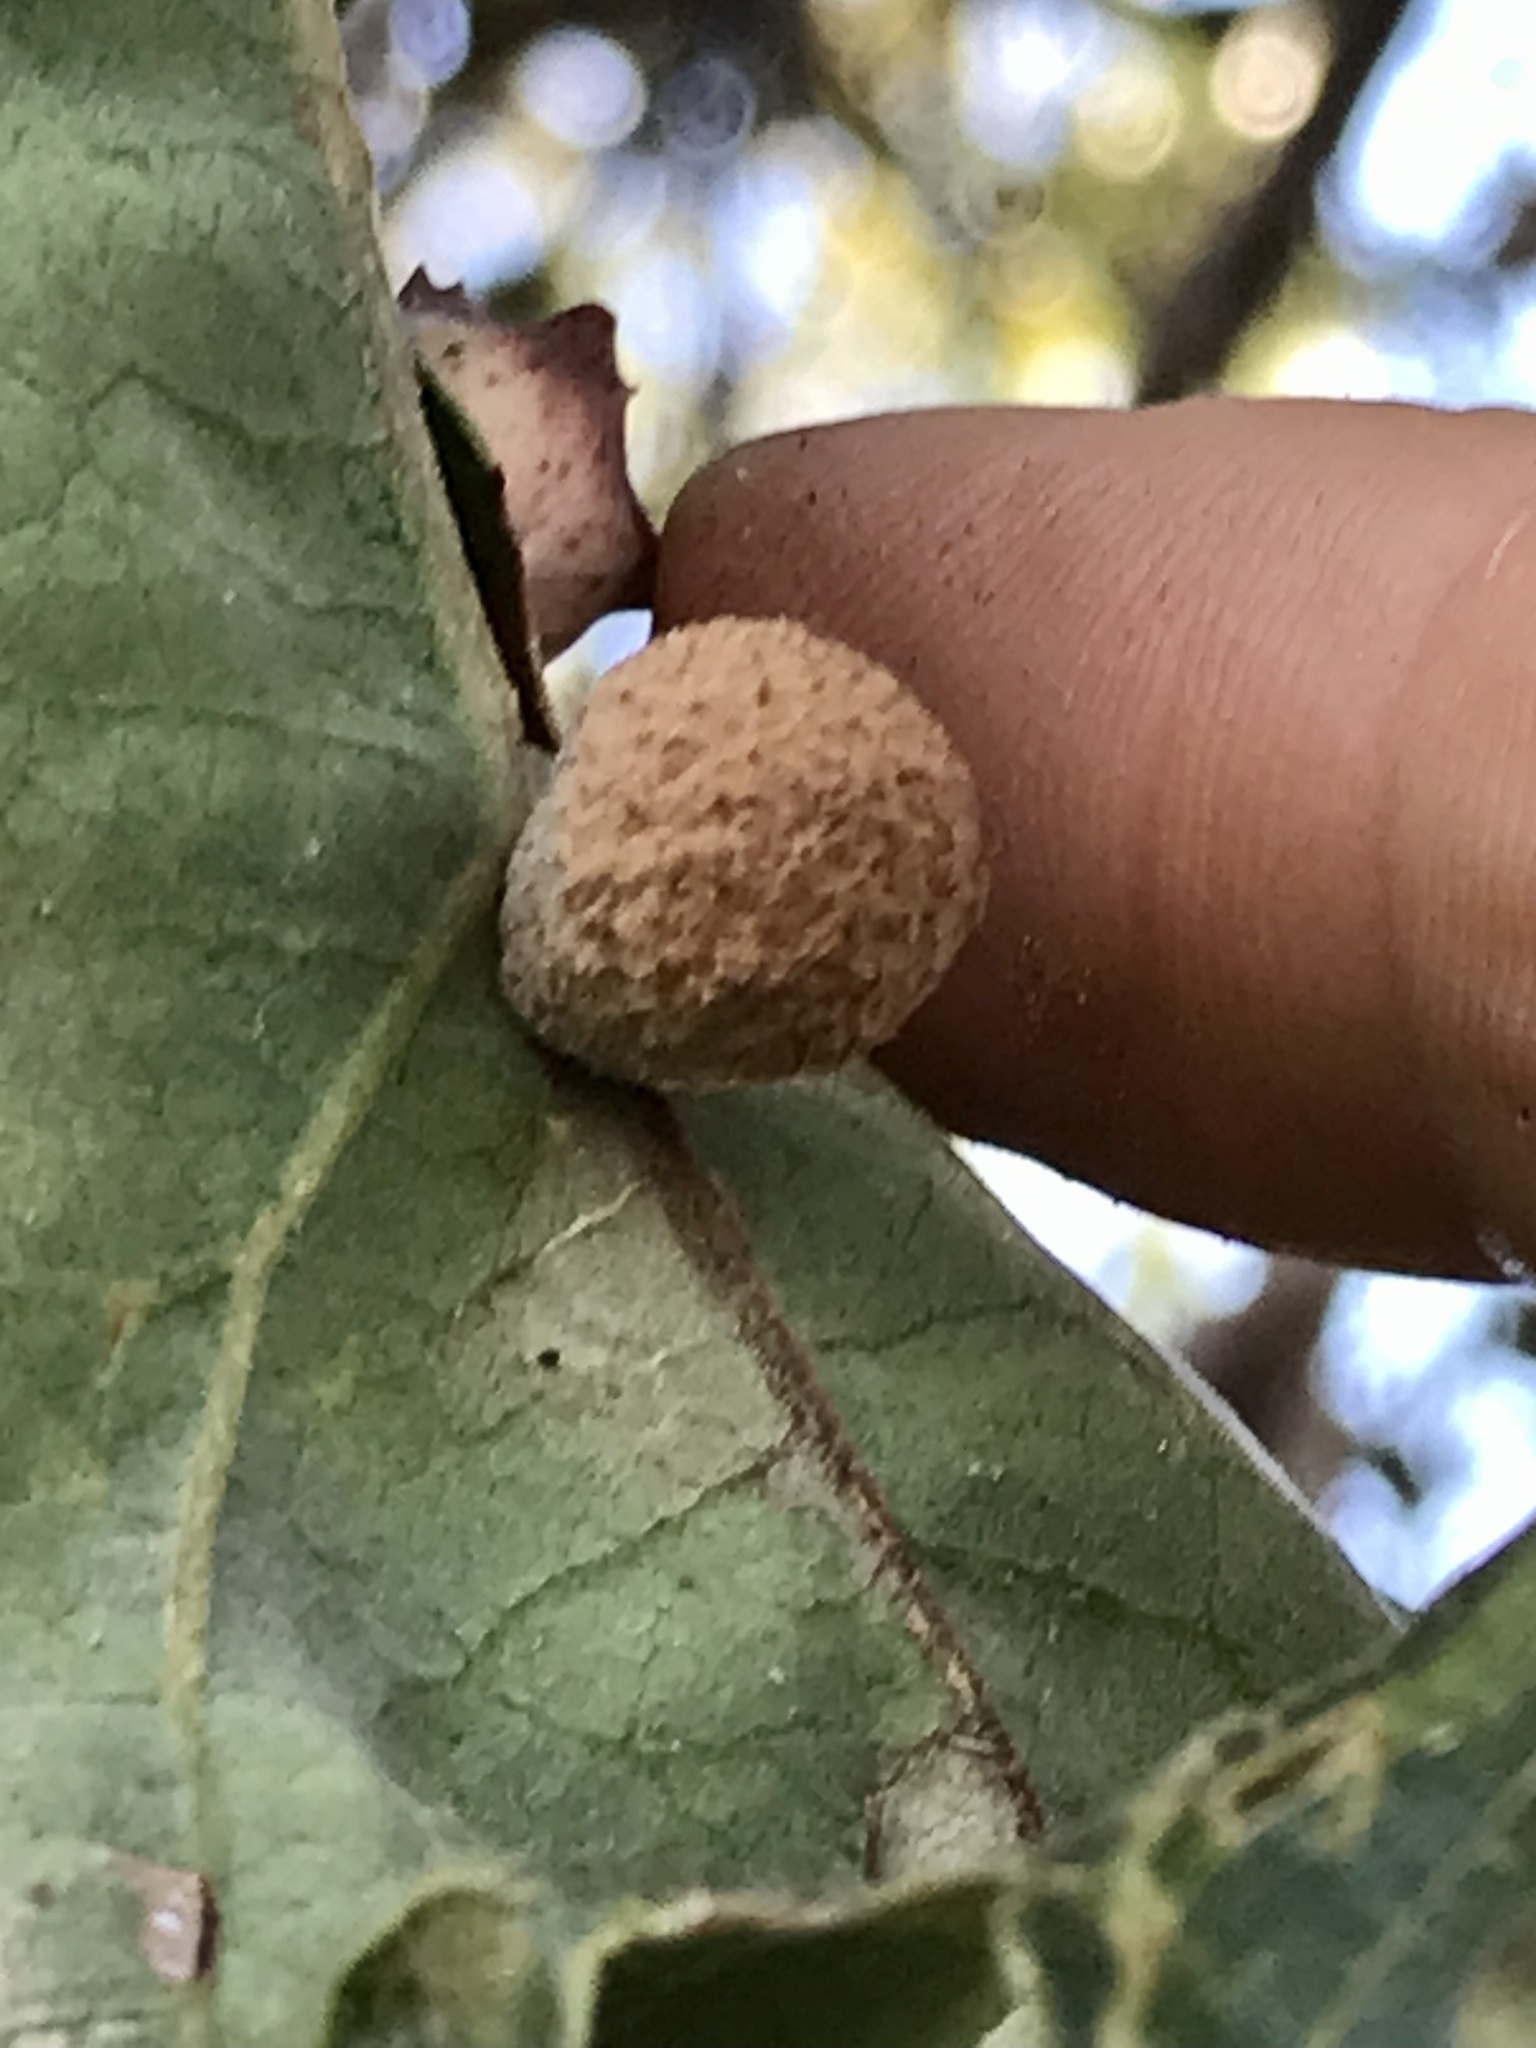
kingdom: Animalia
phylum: Arthropoda
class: Insecta
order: Hymenoptera
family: Cynipidae
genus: Cynips
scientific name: Cynips conspicua
